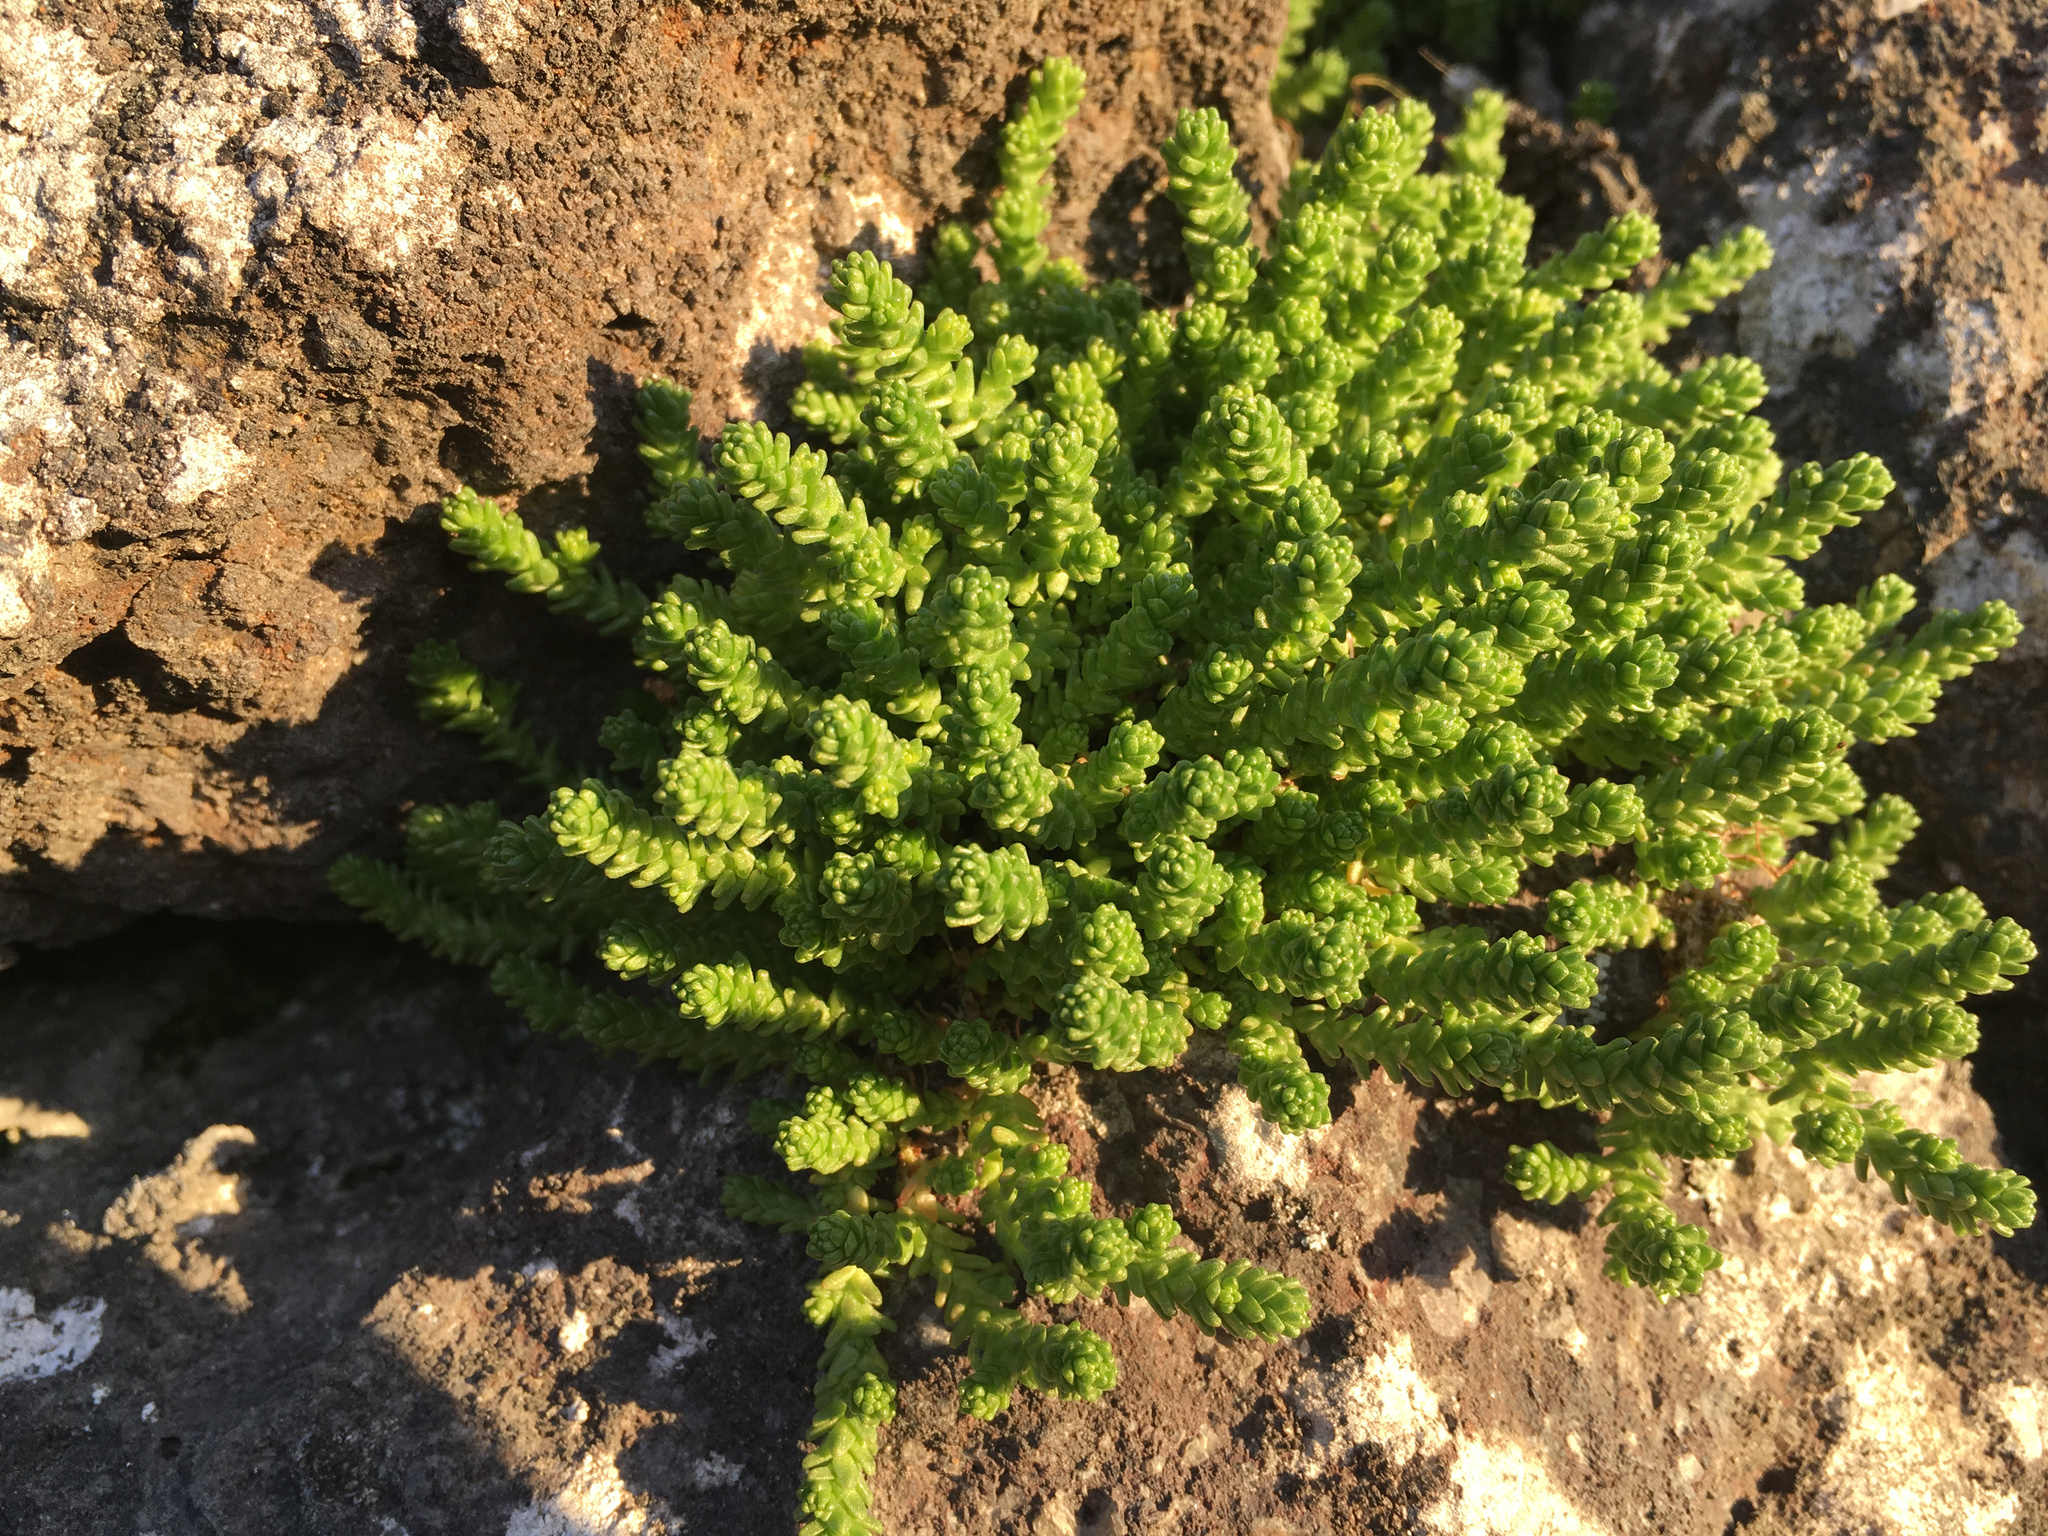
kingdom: Plantae
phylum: Tracheophyta
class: Magnoliopsida
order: Saxifragales
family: Crassulaceae
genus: Sedum
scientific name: Sedum acre
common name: Biting stonecrop
